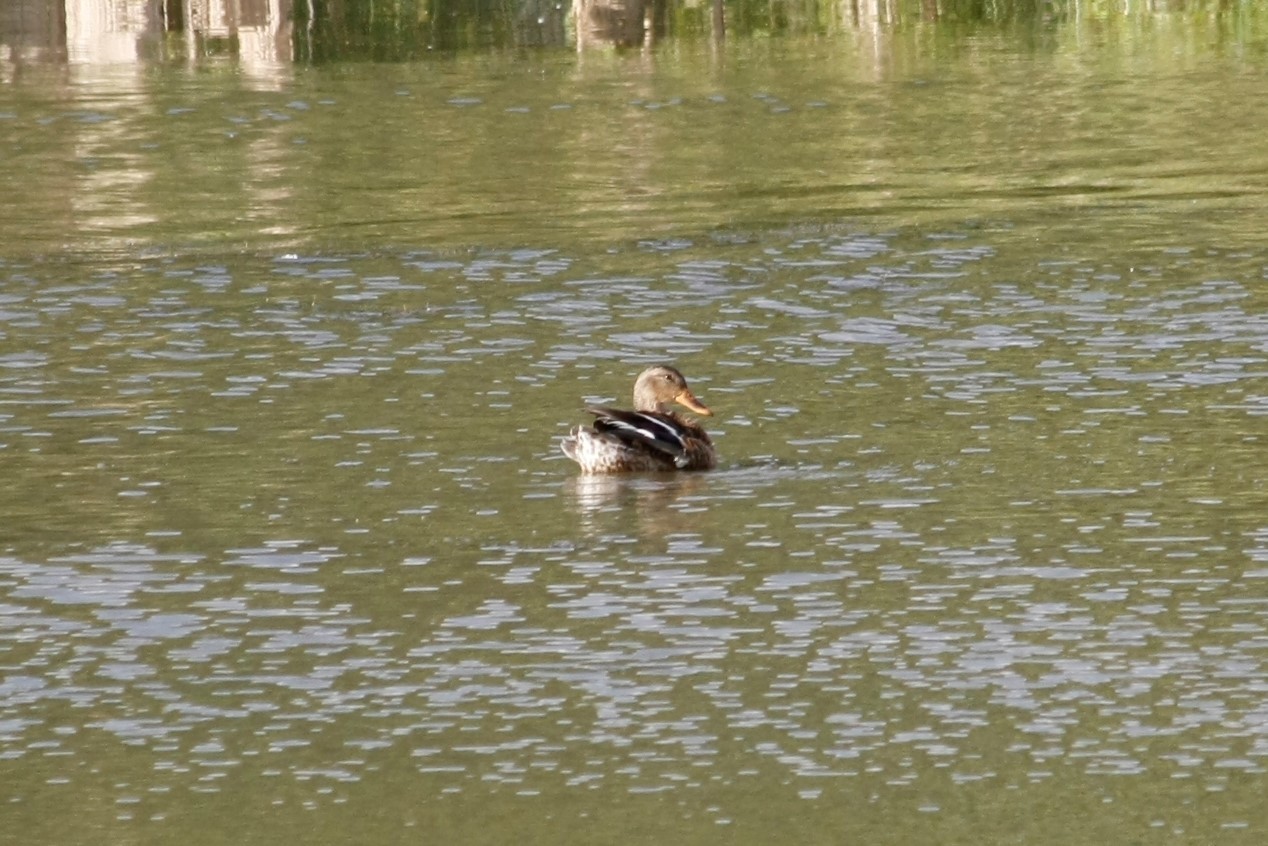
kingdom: Animalia
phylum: Chordata
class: Aves
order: Anseriformes
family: Anatidae
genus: Anas
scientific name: Anas platyrhynchos
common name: Mallard
